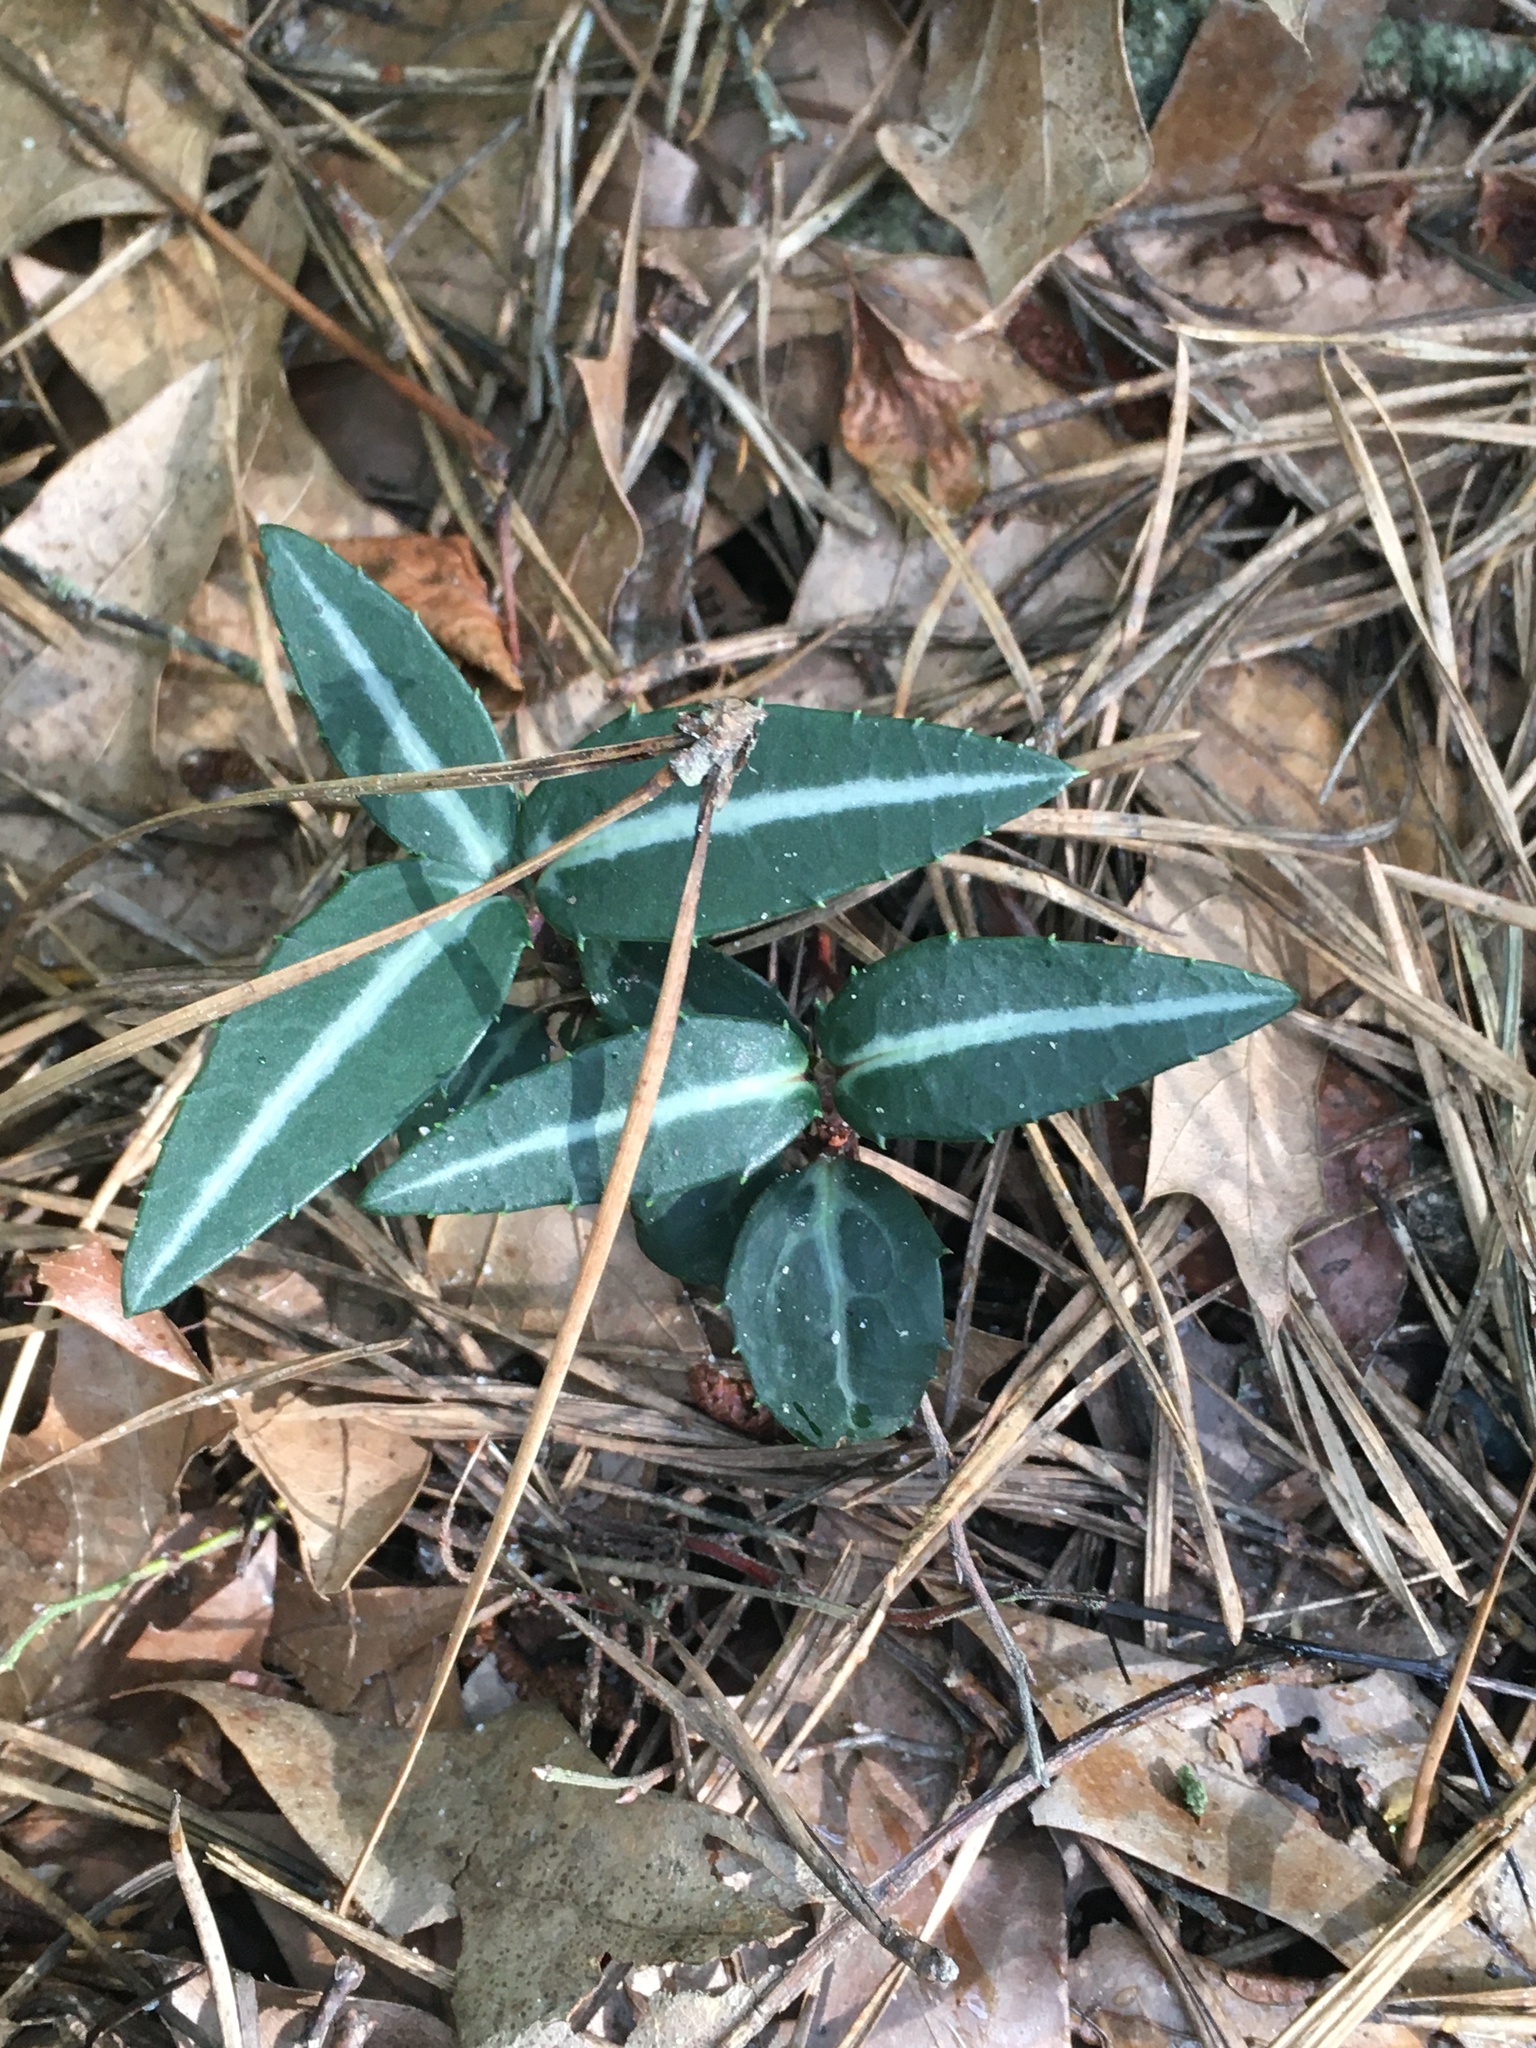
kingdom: Plantae
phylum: Tracheophyta
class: Magnoliopsida
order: Ericales
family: Ericaceae
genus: Chimaphila
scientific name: Chimaphila maculata
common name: Spotted pipsissewa
